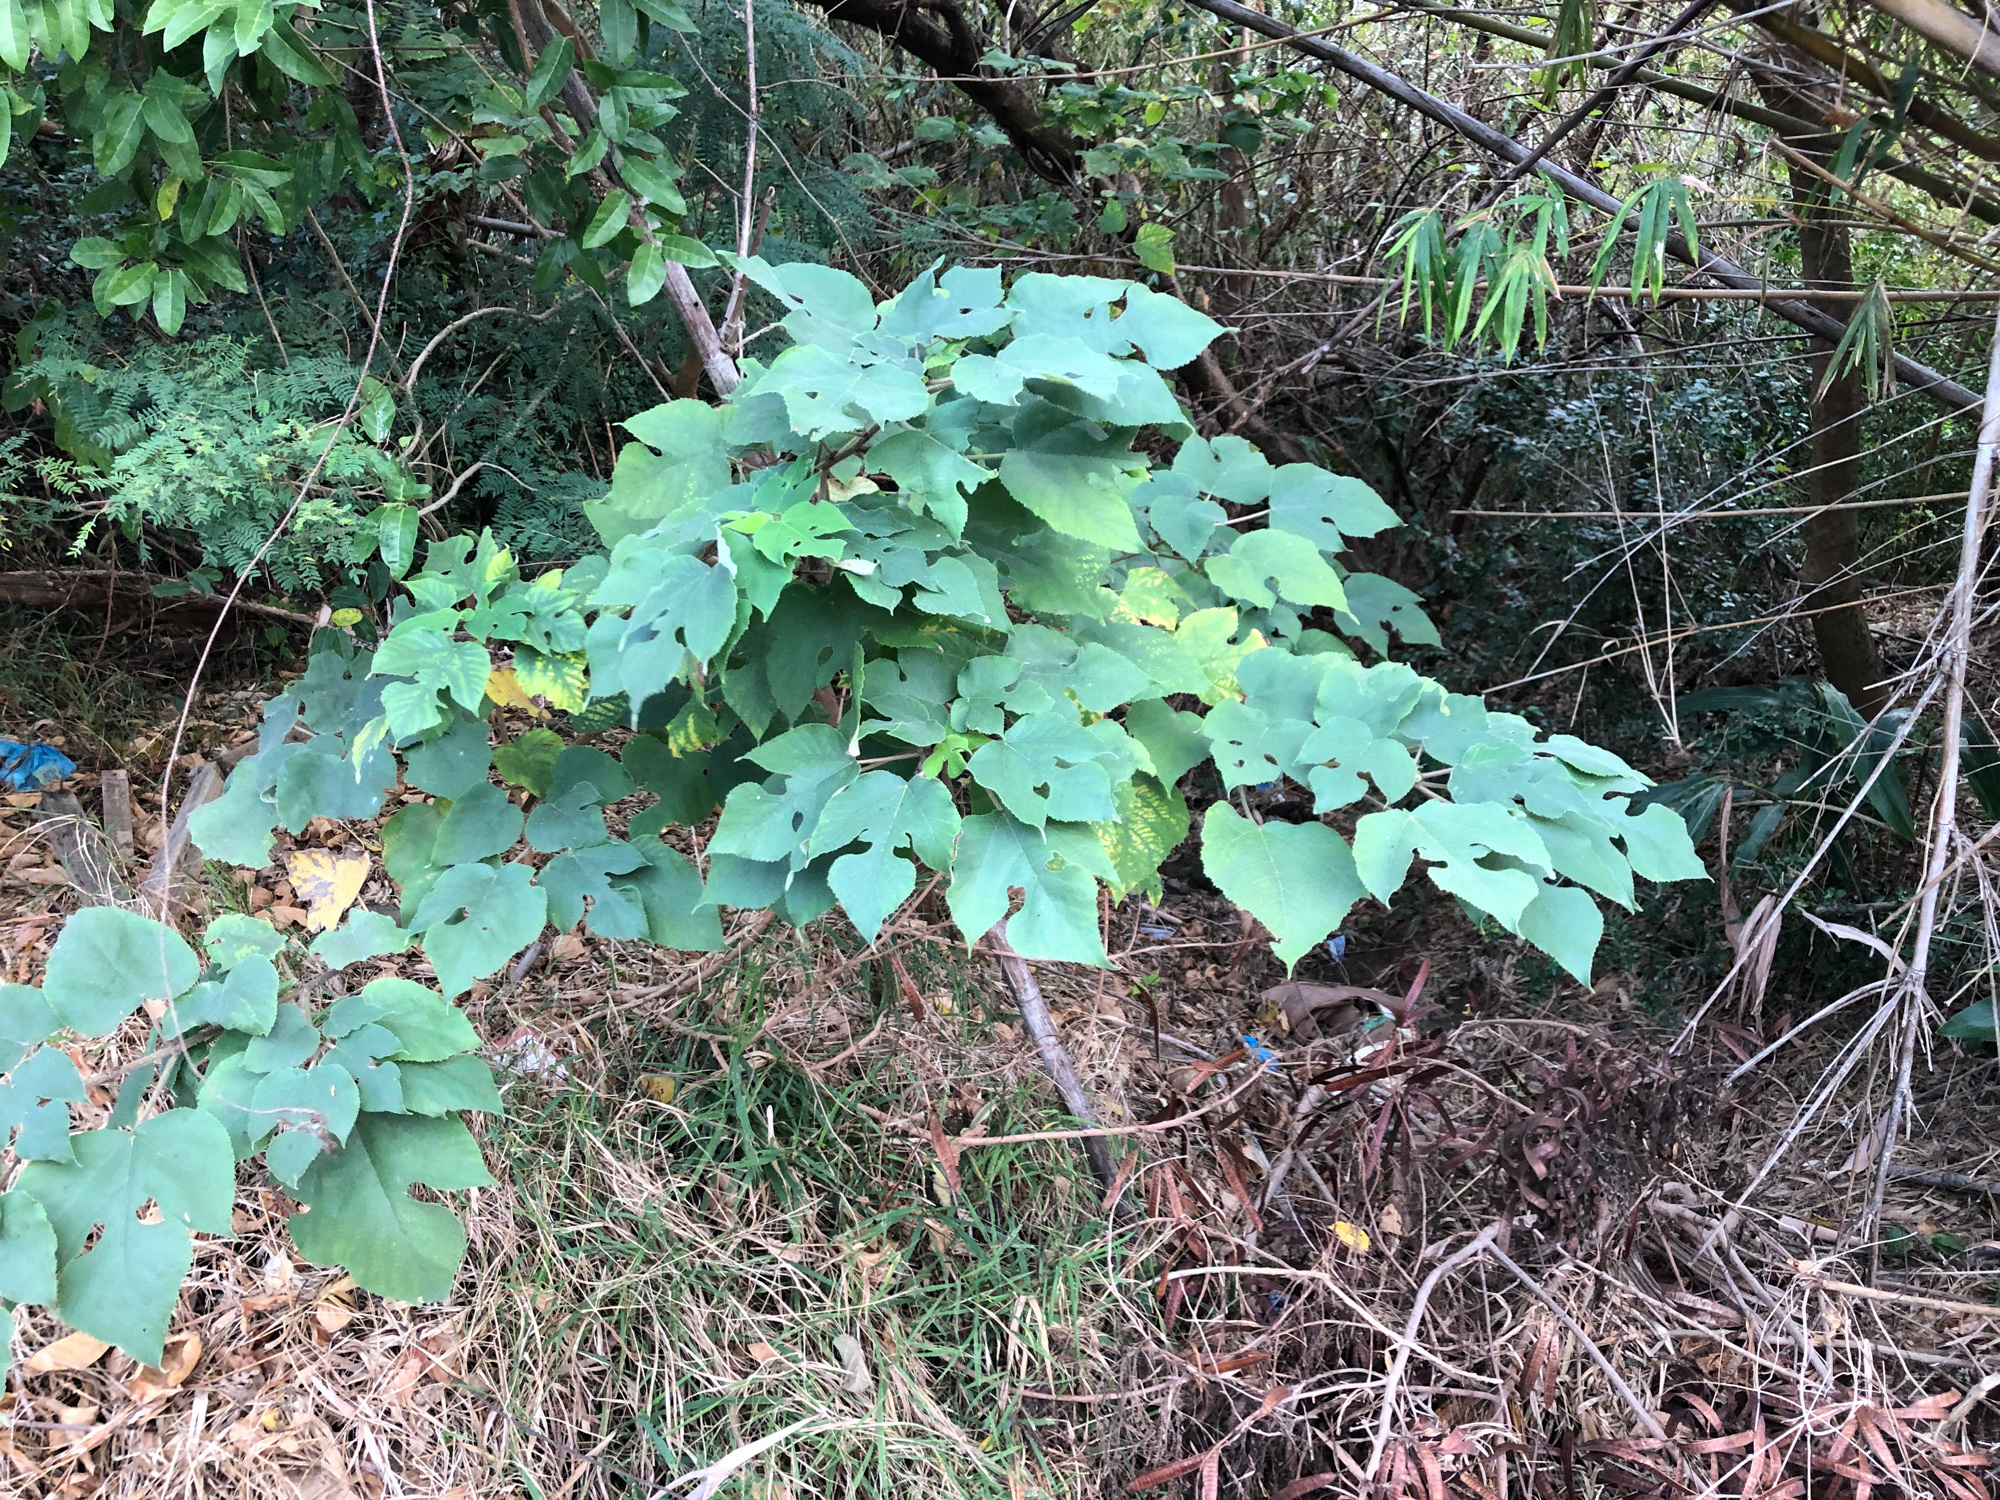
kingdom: Plantae
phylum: Tracheophyta
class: Magnoliopsida
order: Rosales
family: Moraceae
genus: Broussonetia
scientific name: Broussonetia papyrifera
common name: Paper mulberry
